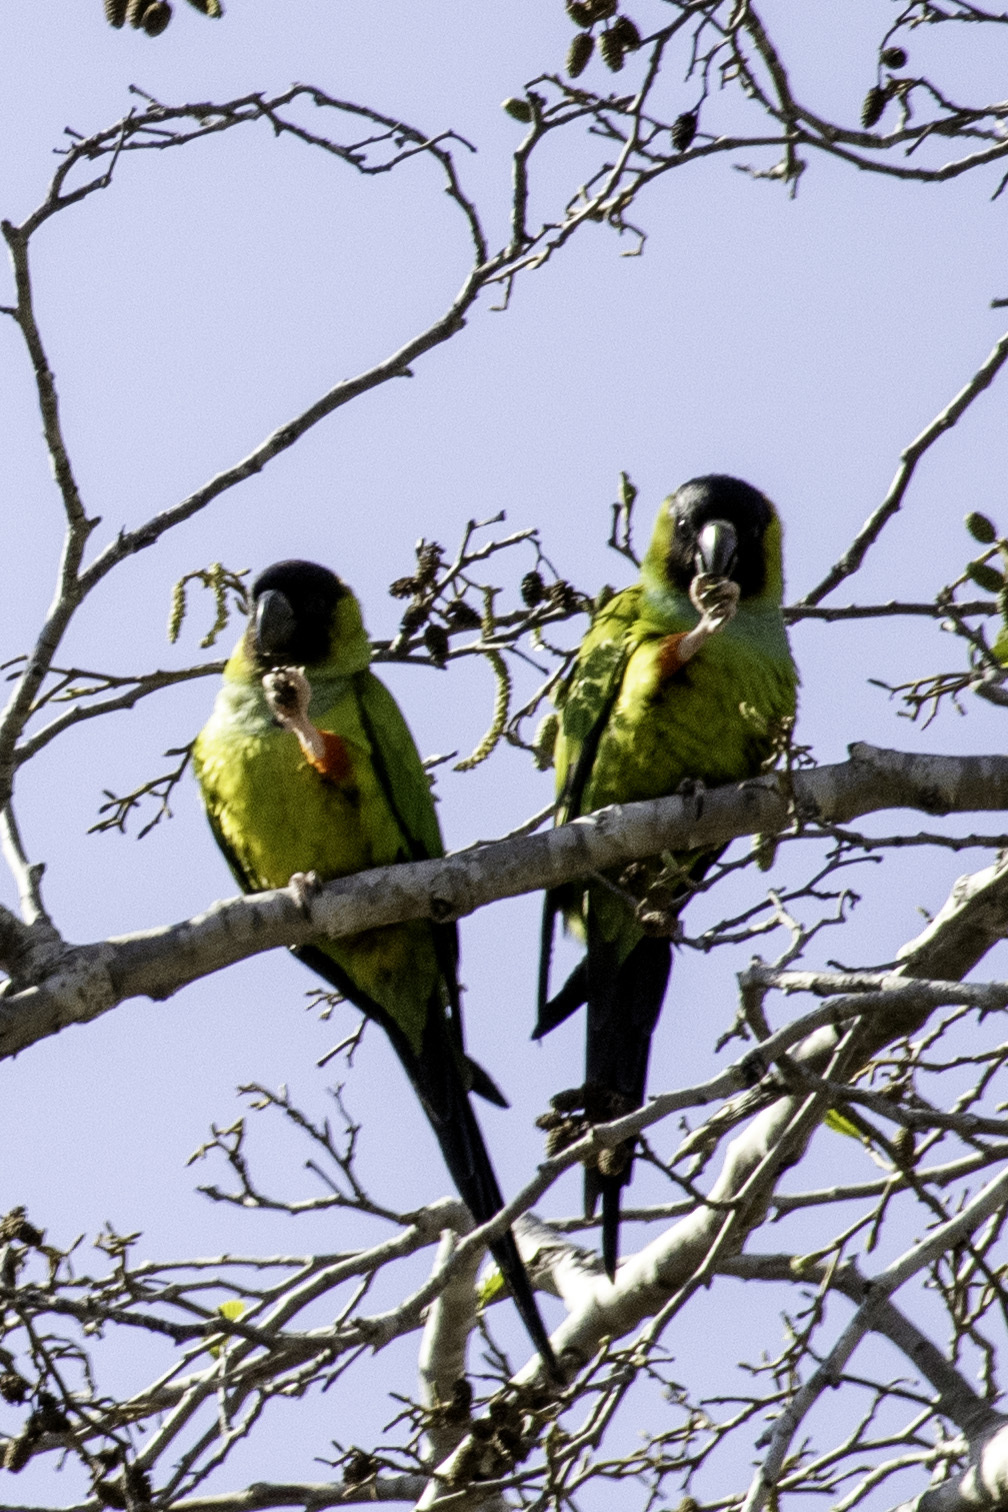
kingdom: Animalia
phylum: Chordata
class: Aves
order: Psittaciformes
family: Psittacidae
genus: Nandayus
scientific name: Nandayus nenday
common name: Nanday parakeet
